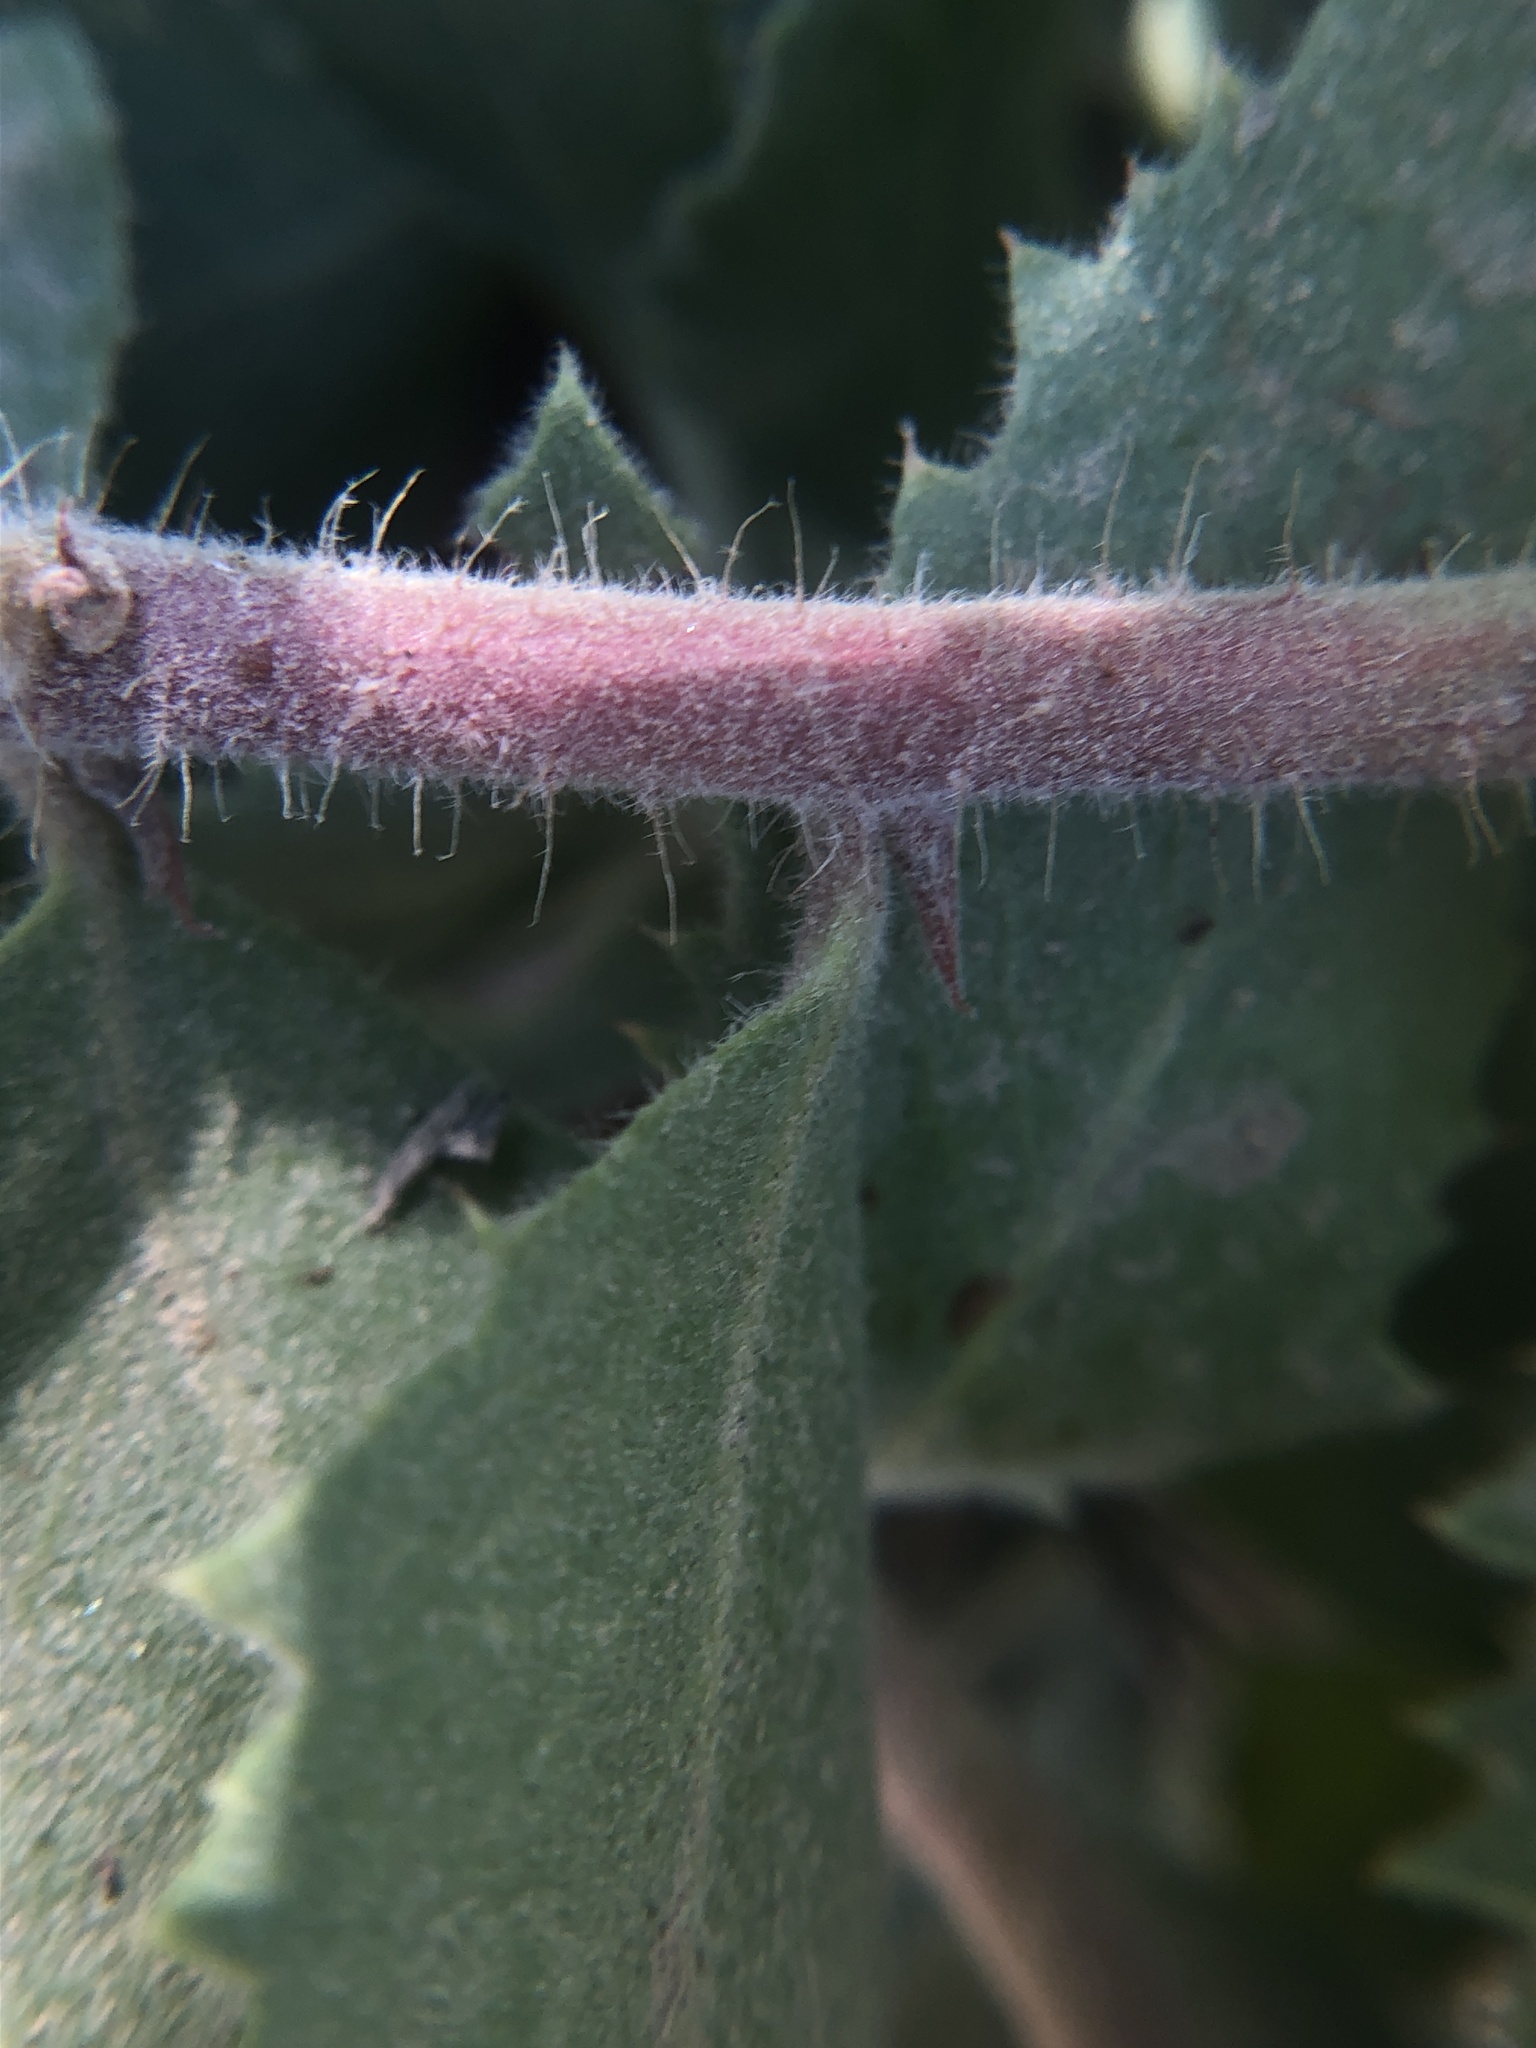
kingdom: Plantae
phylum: Tracheophyta
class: Magnoliopsida
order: Ericales
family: Ericaceae
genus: Arctostaphylos
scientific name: Arctostaphylos glandulosa
